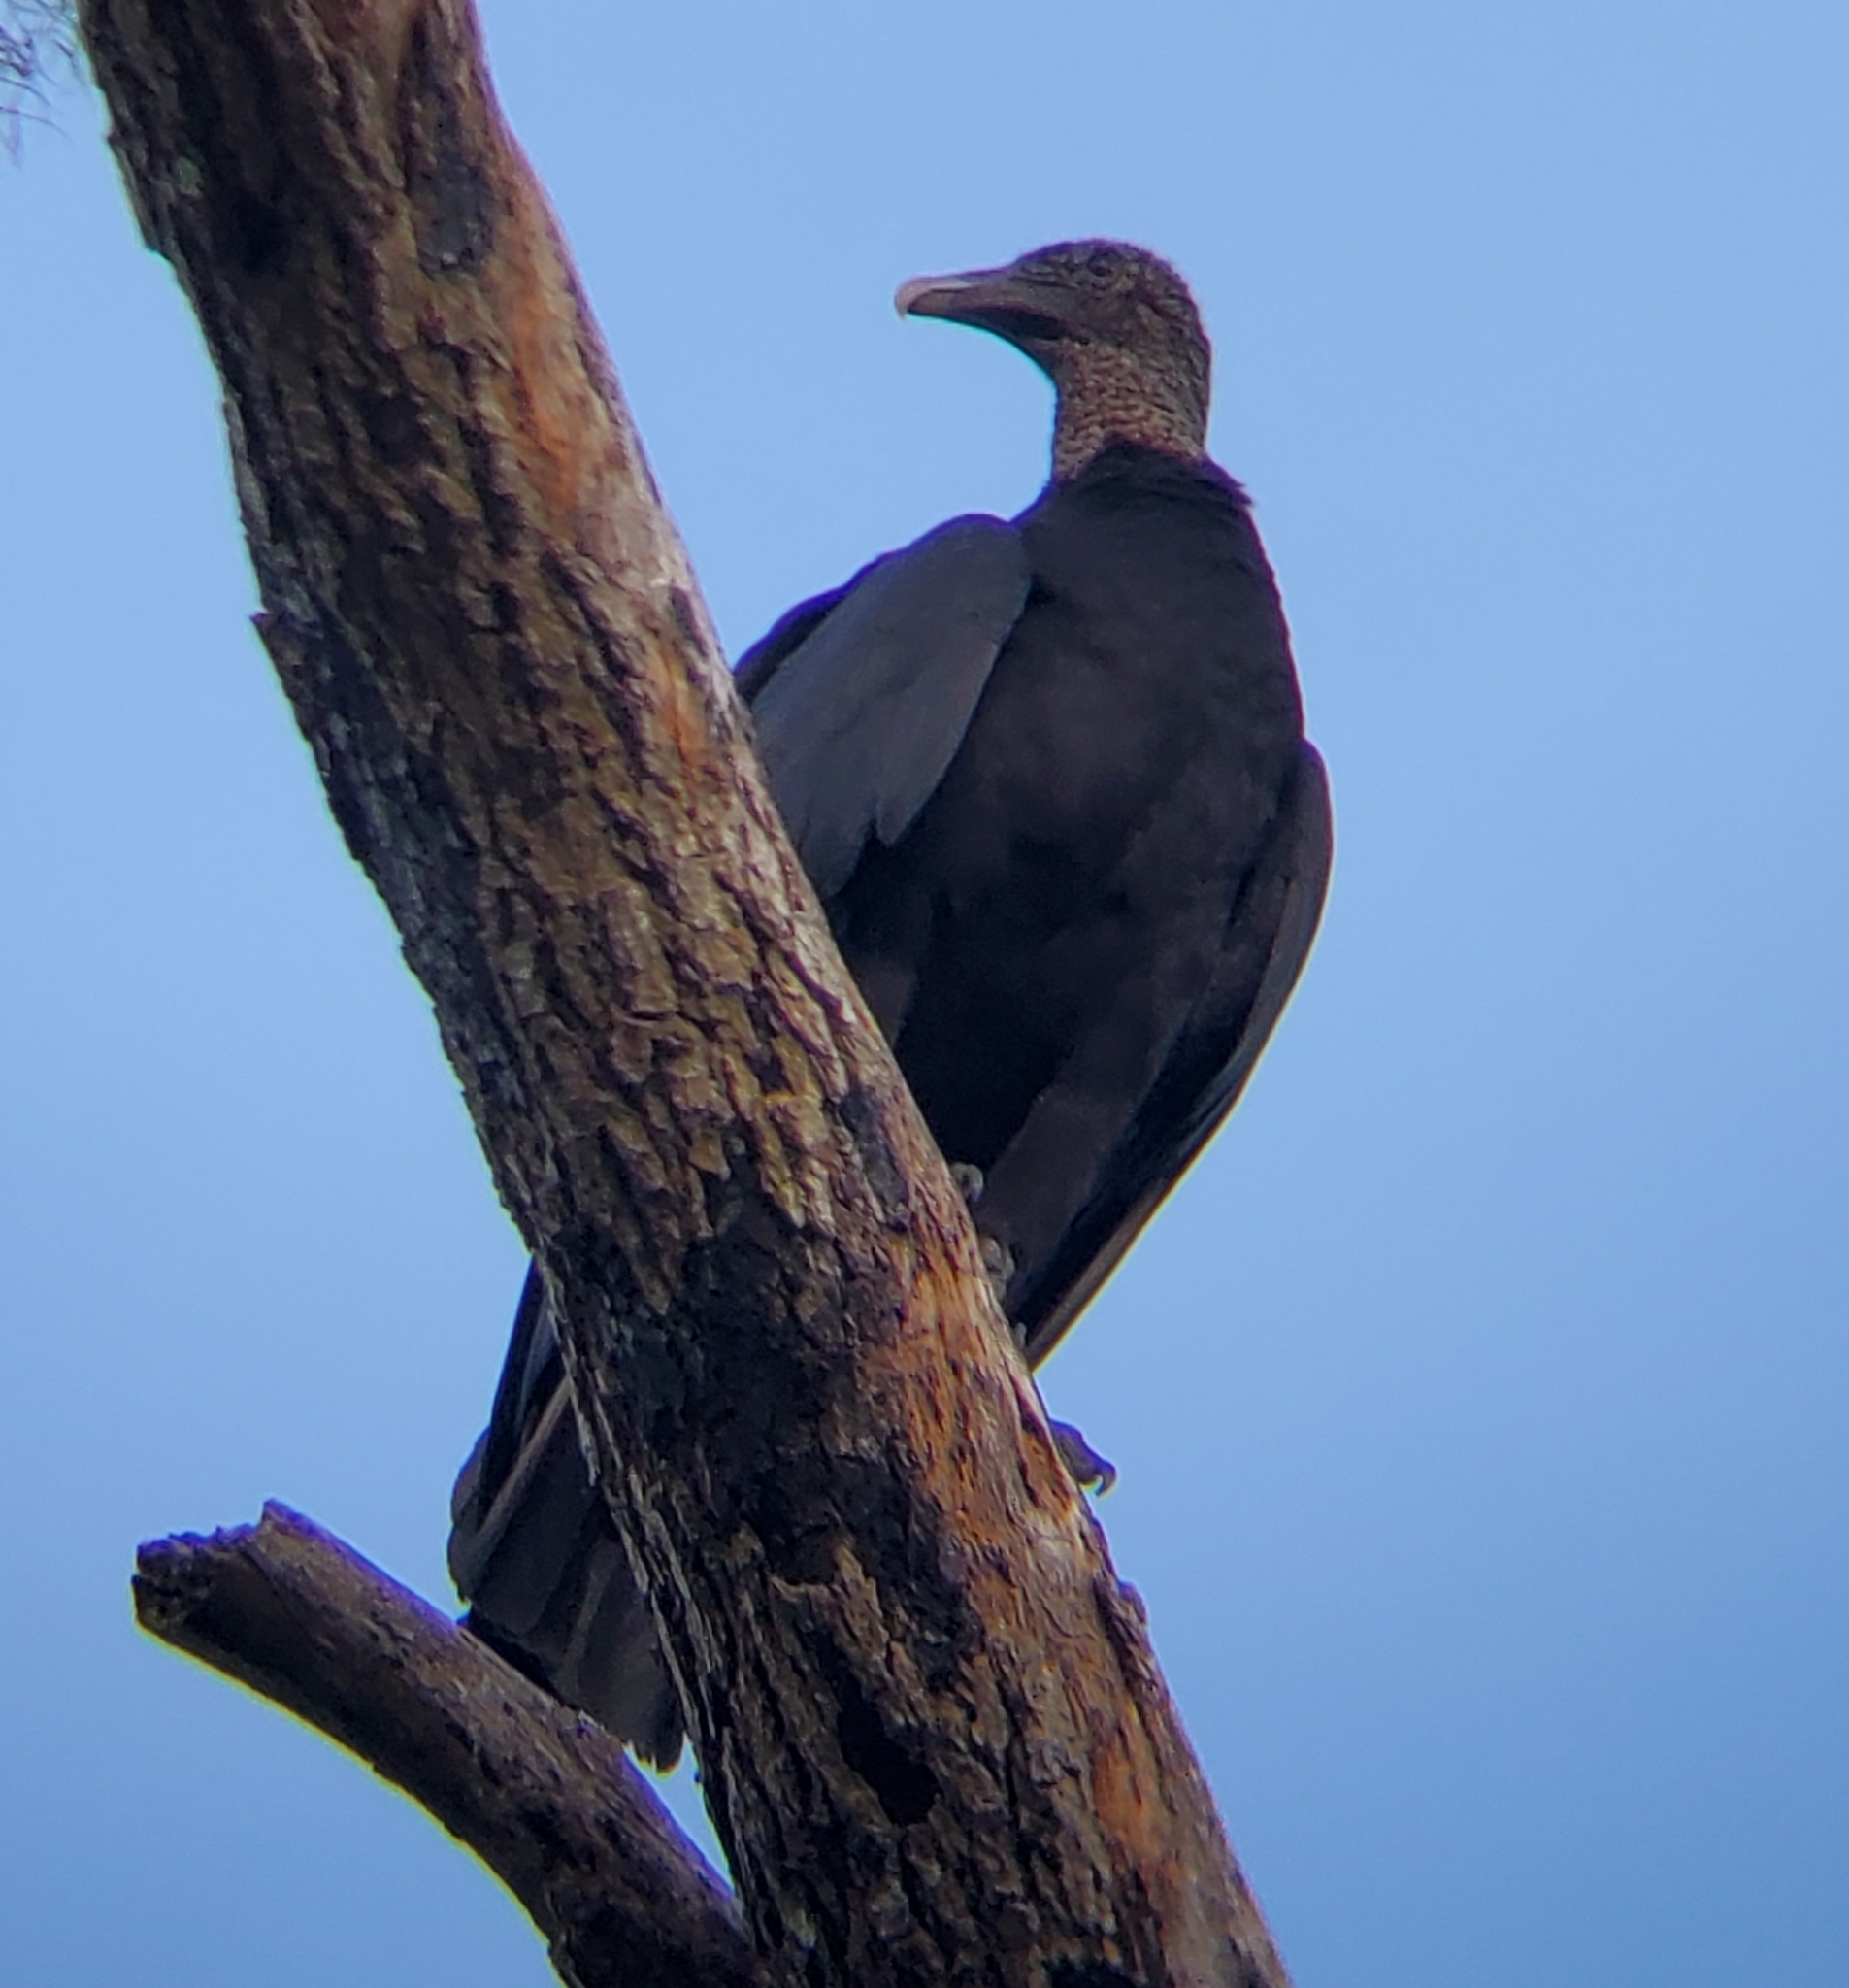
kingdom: Animalia
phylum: Chordata
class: Aves
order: Accipitriformes
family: Cathartidae
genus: Coragyps
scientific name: Coragyps atratus
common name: Black vulture
